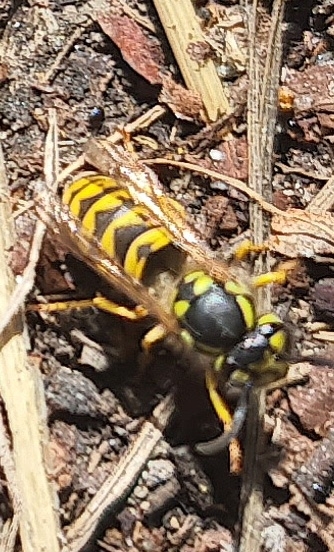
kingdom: Animalia
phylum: Arthropoda
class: Insecta
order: Hymenoptera
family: Vespidae
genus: Vespula
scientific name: Vespula germanica
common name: German wasp
